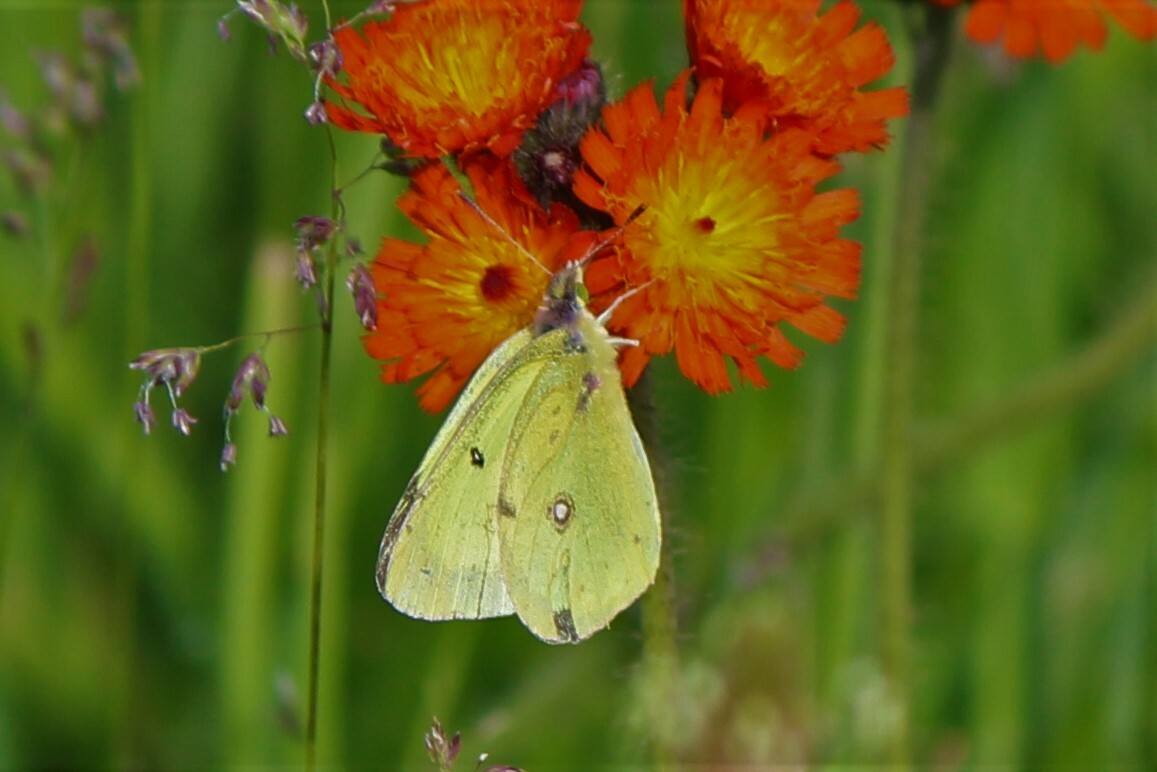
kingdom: Animalia
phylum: Arthropoda
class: Insecta
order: Lepidoptera
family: Pieridae
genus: Colias
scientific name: Colias philodice
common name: Clouded sulphur
